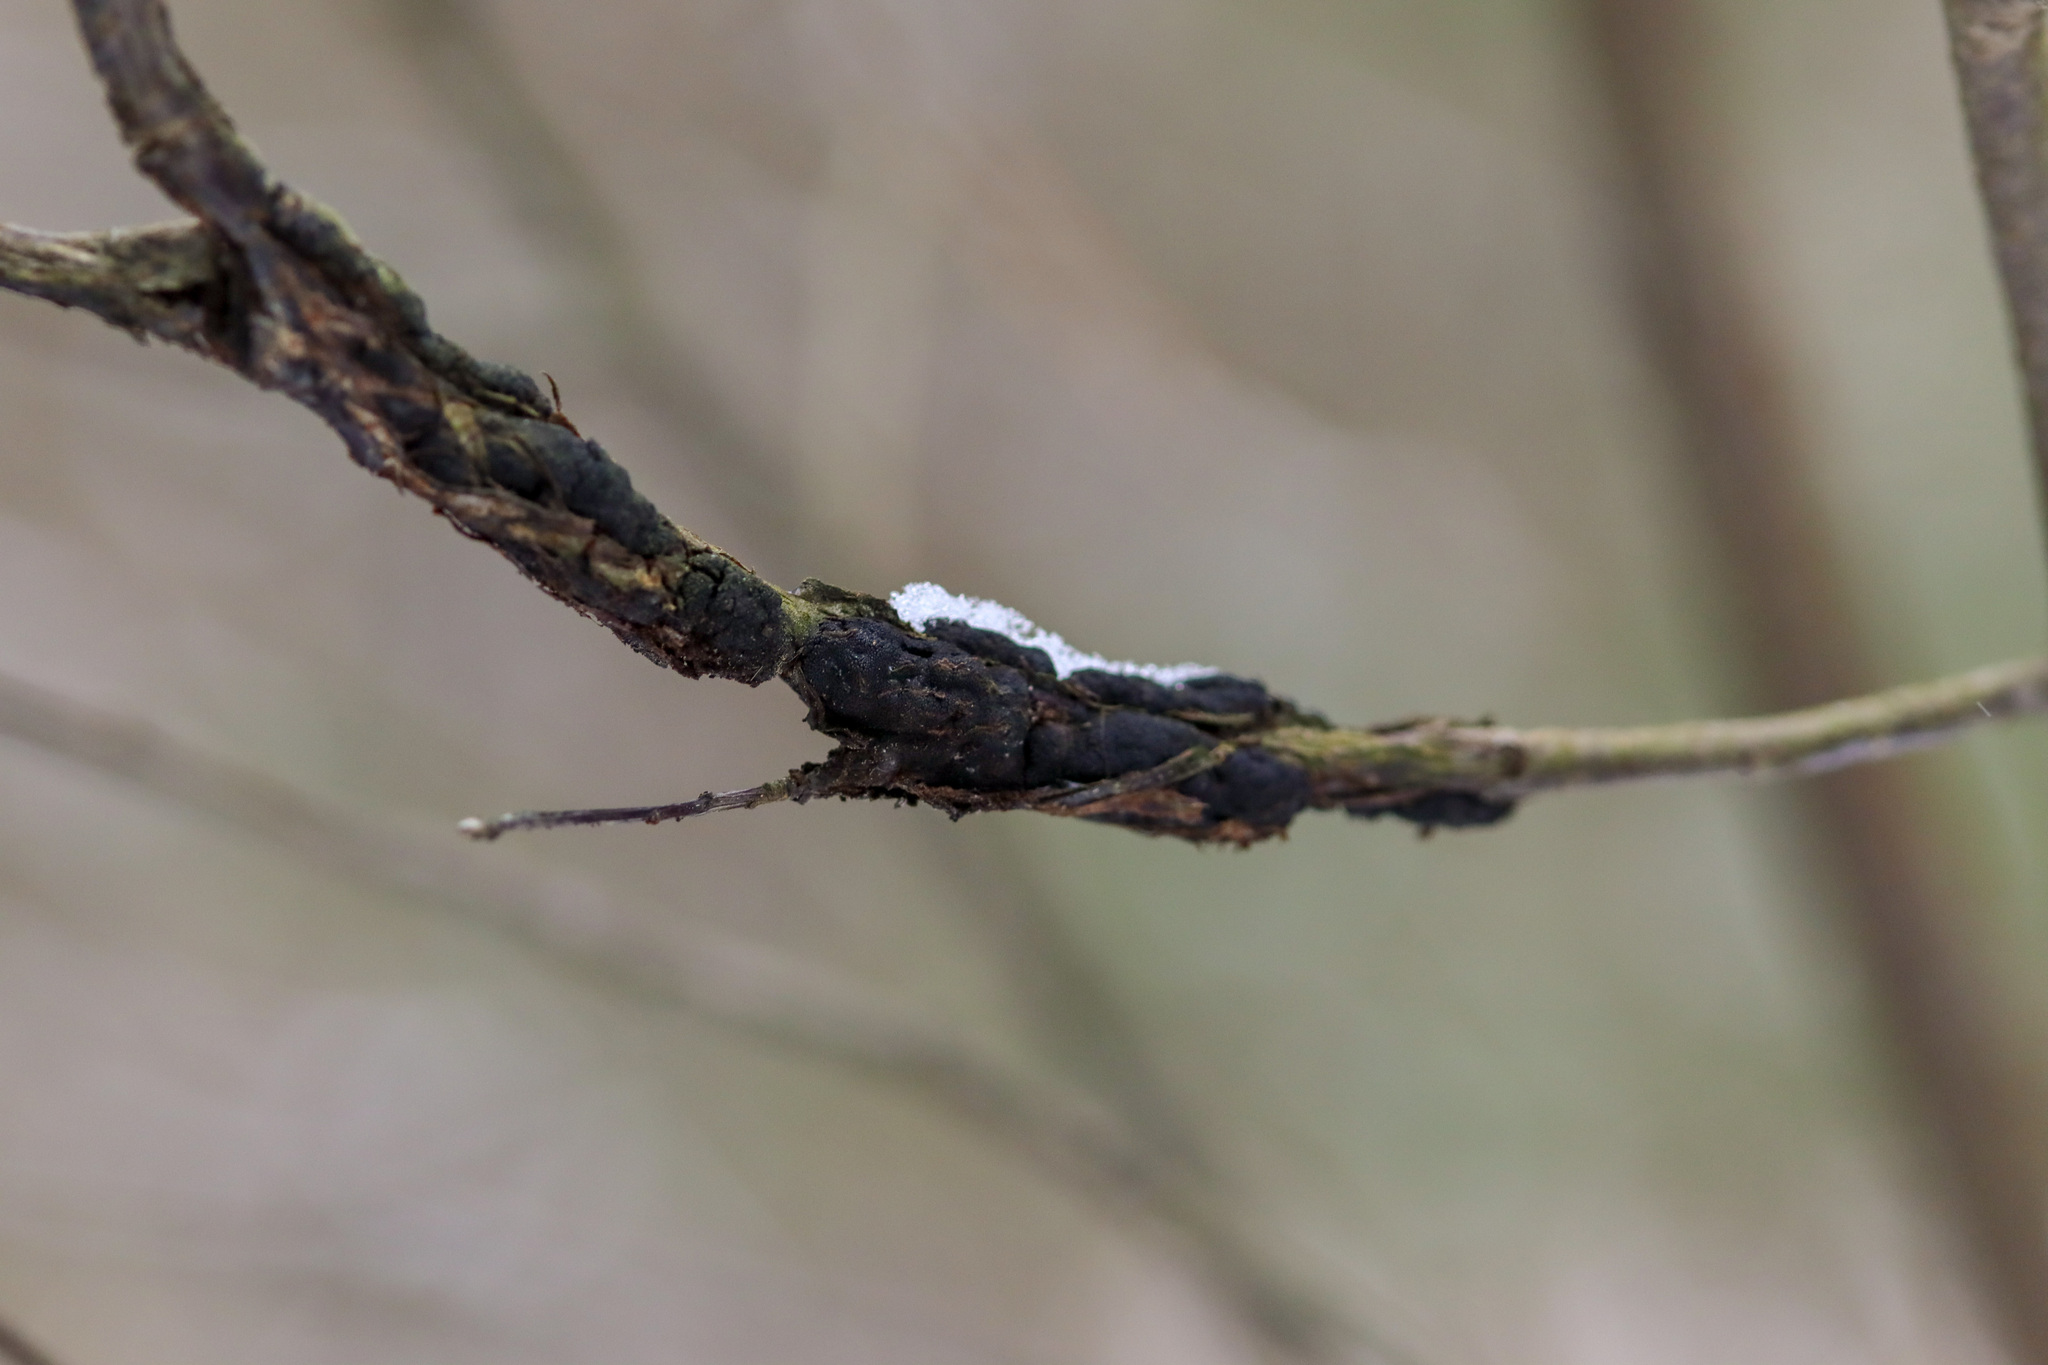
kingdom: Fungi
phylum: Ascomycota
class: Dothideomycetes
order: Venturiales
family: Venturiaceae
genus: Apiosporina
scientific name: Apiosporina morbosa
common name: Black knot
